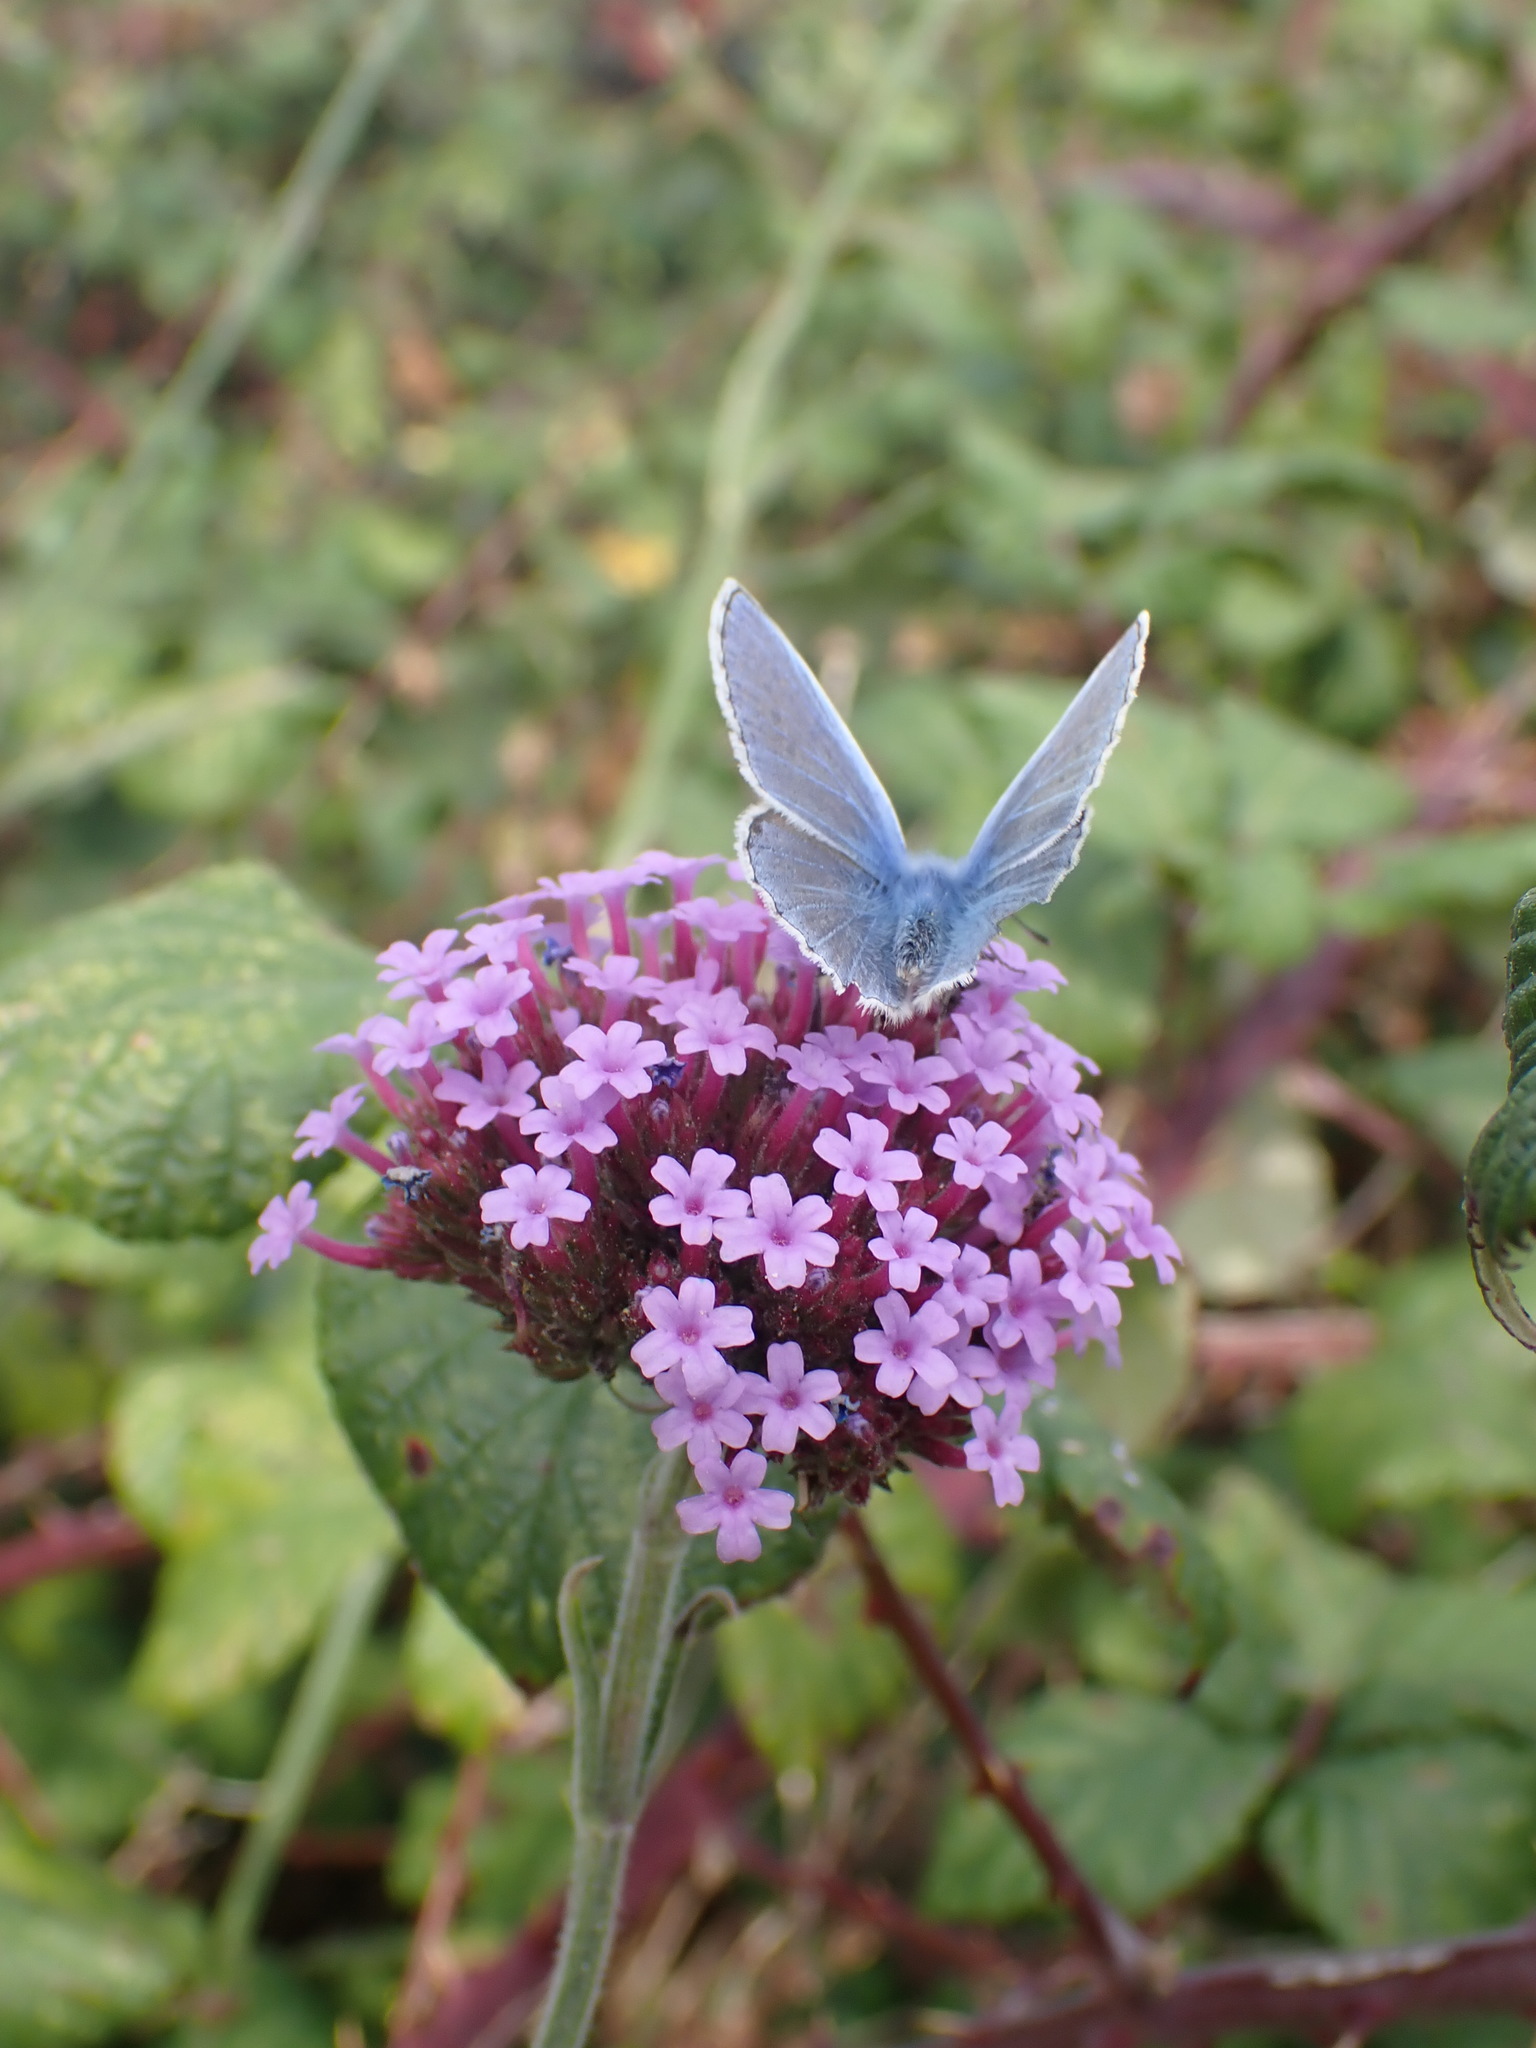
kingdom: Plantae
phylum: Tracheophyta
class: Magnoliopsida
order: Lamiales
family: Verbenaceae
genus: Verbena
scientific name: Verbena bonariensis
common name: Purpletop vervain
